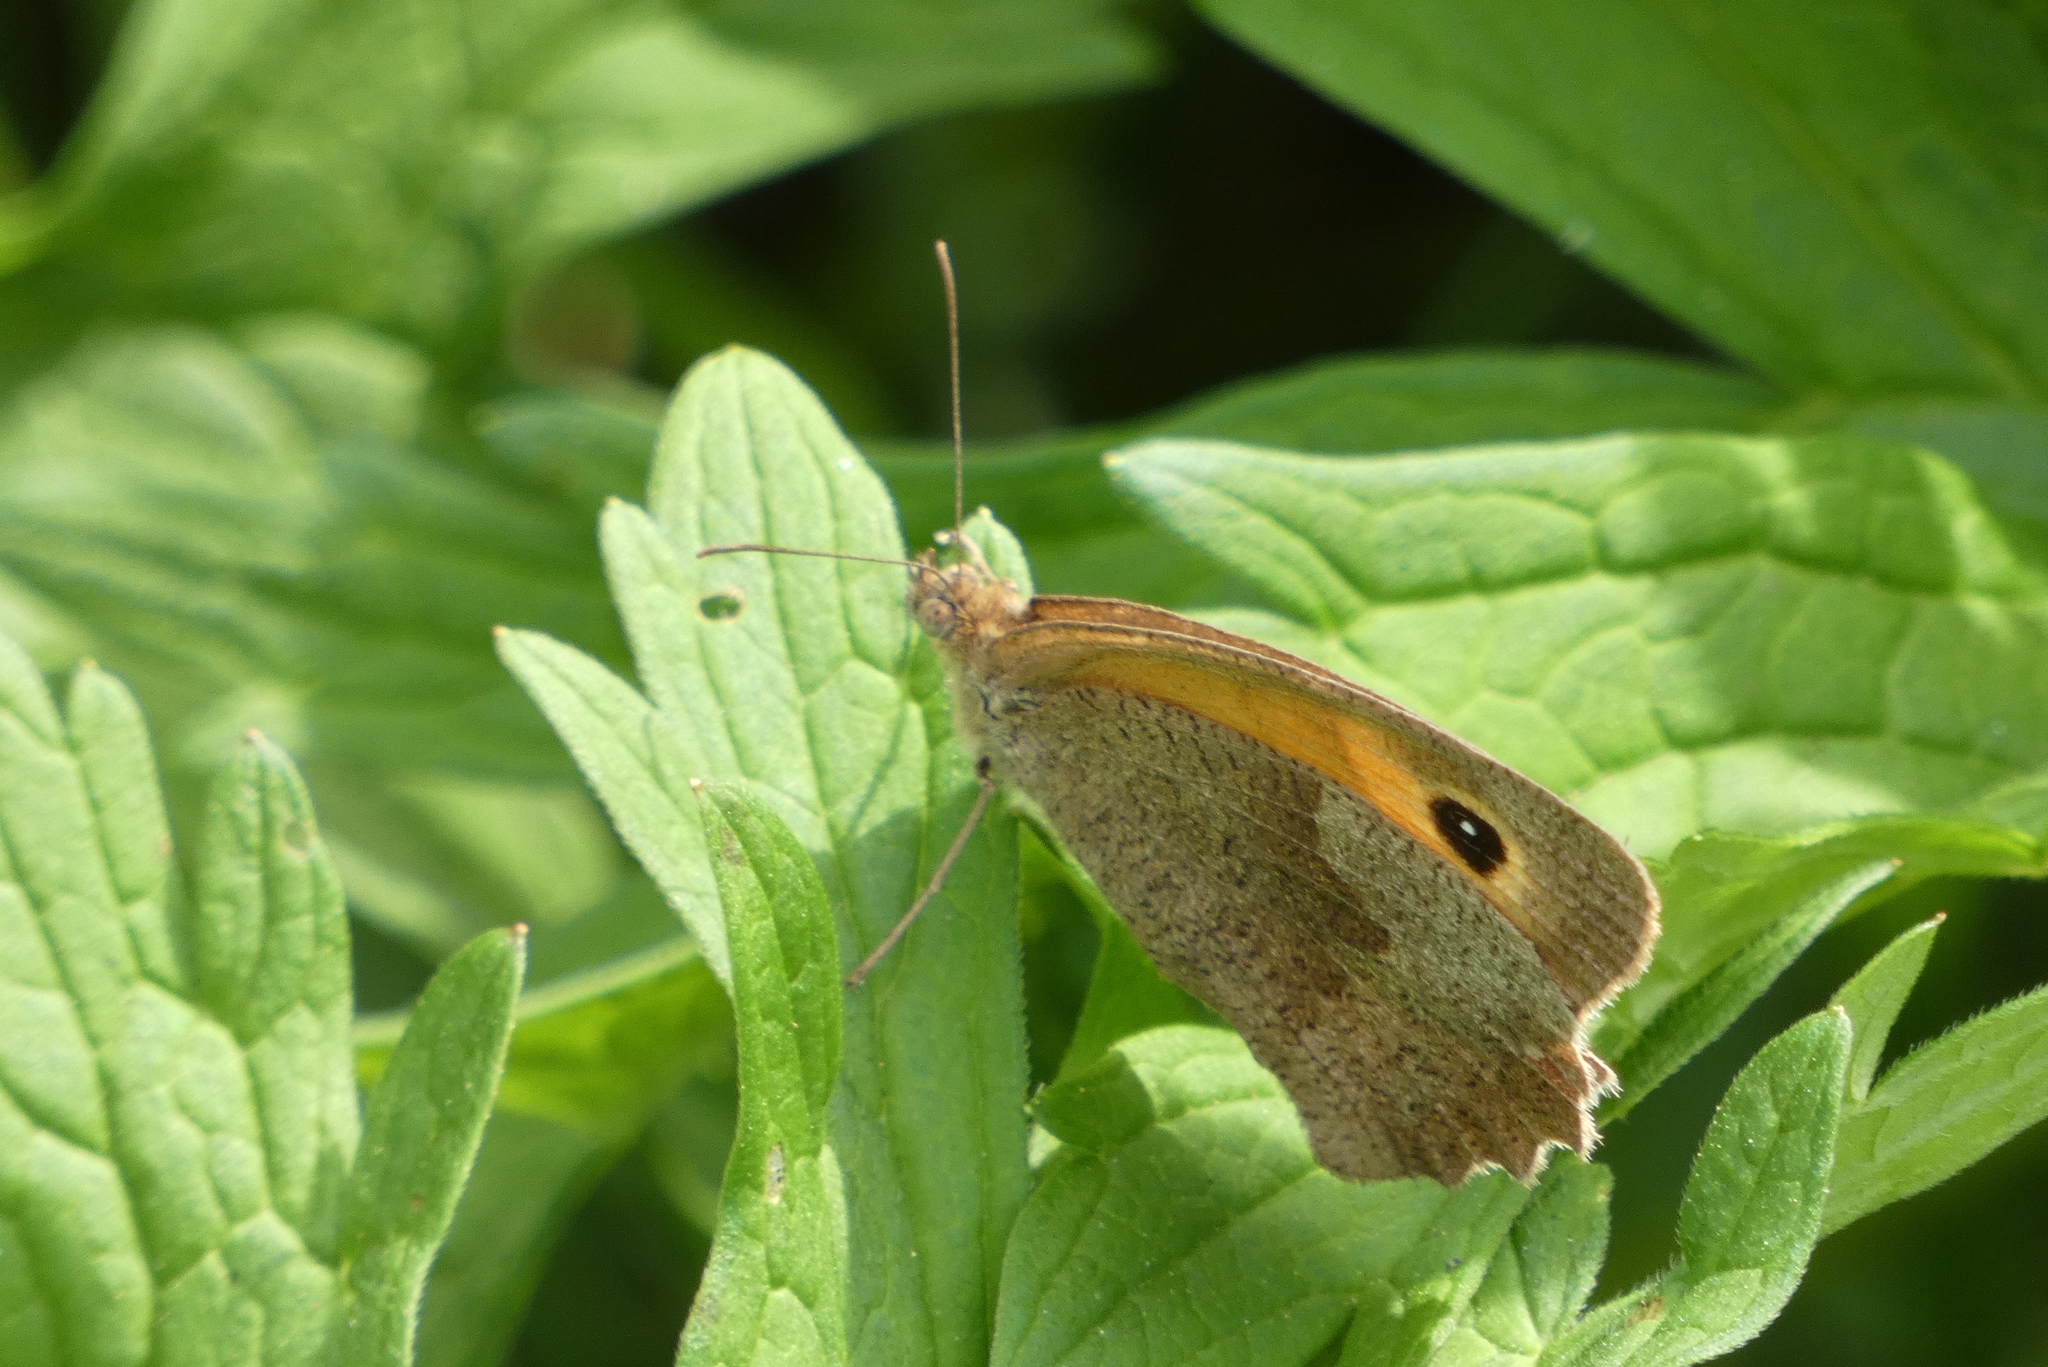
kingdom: Animalia
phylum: Arthropoda
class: Insecta
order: Lepidoptera
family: Nymphalidae
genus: Maniola
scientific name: Maniola jurtina
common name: Meadow brown
